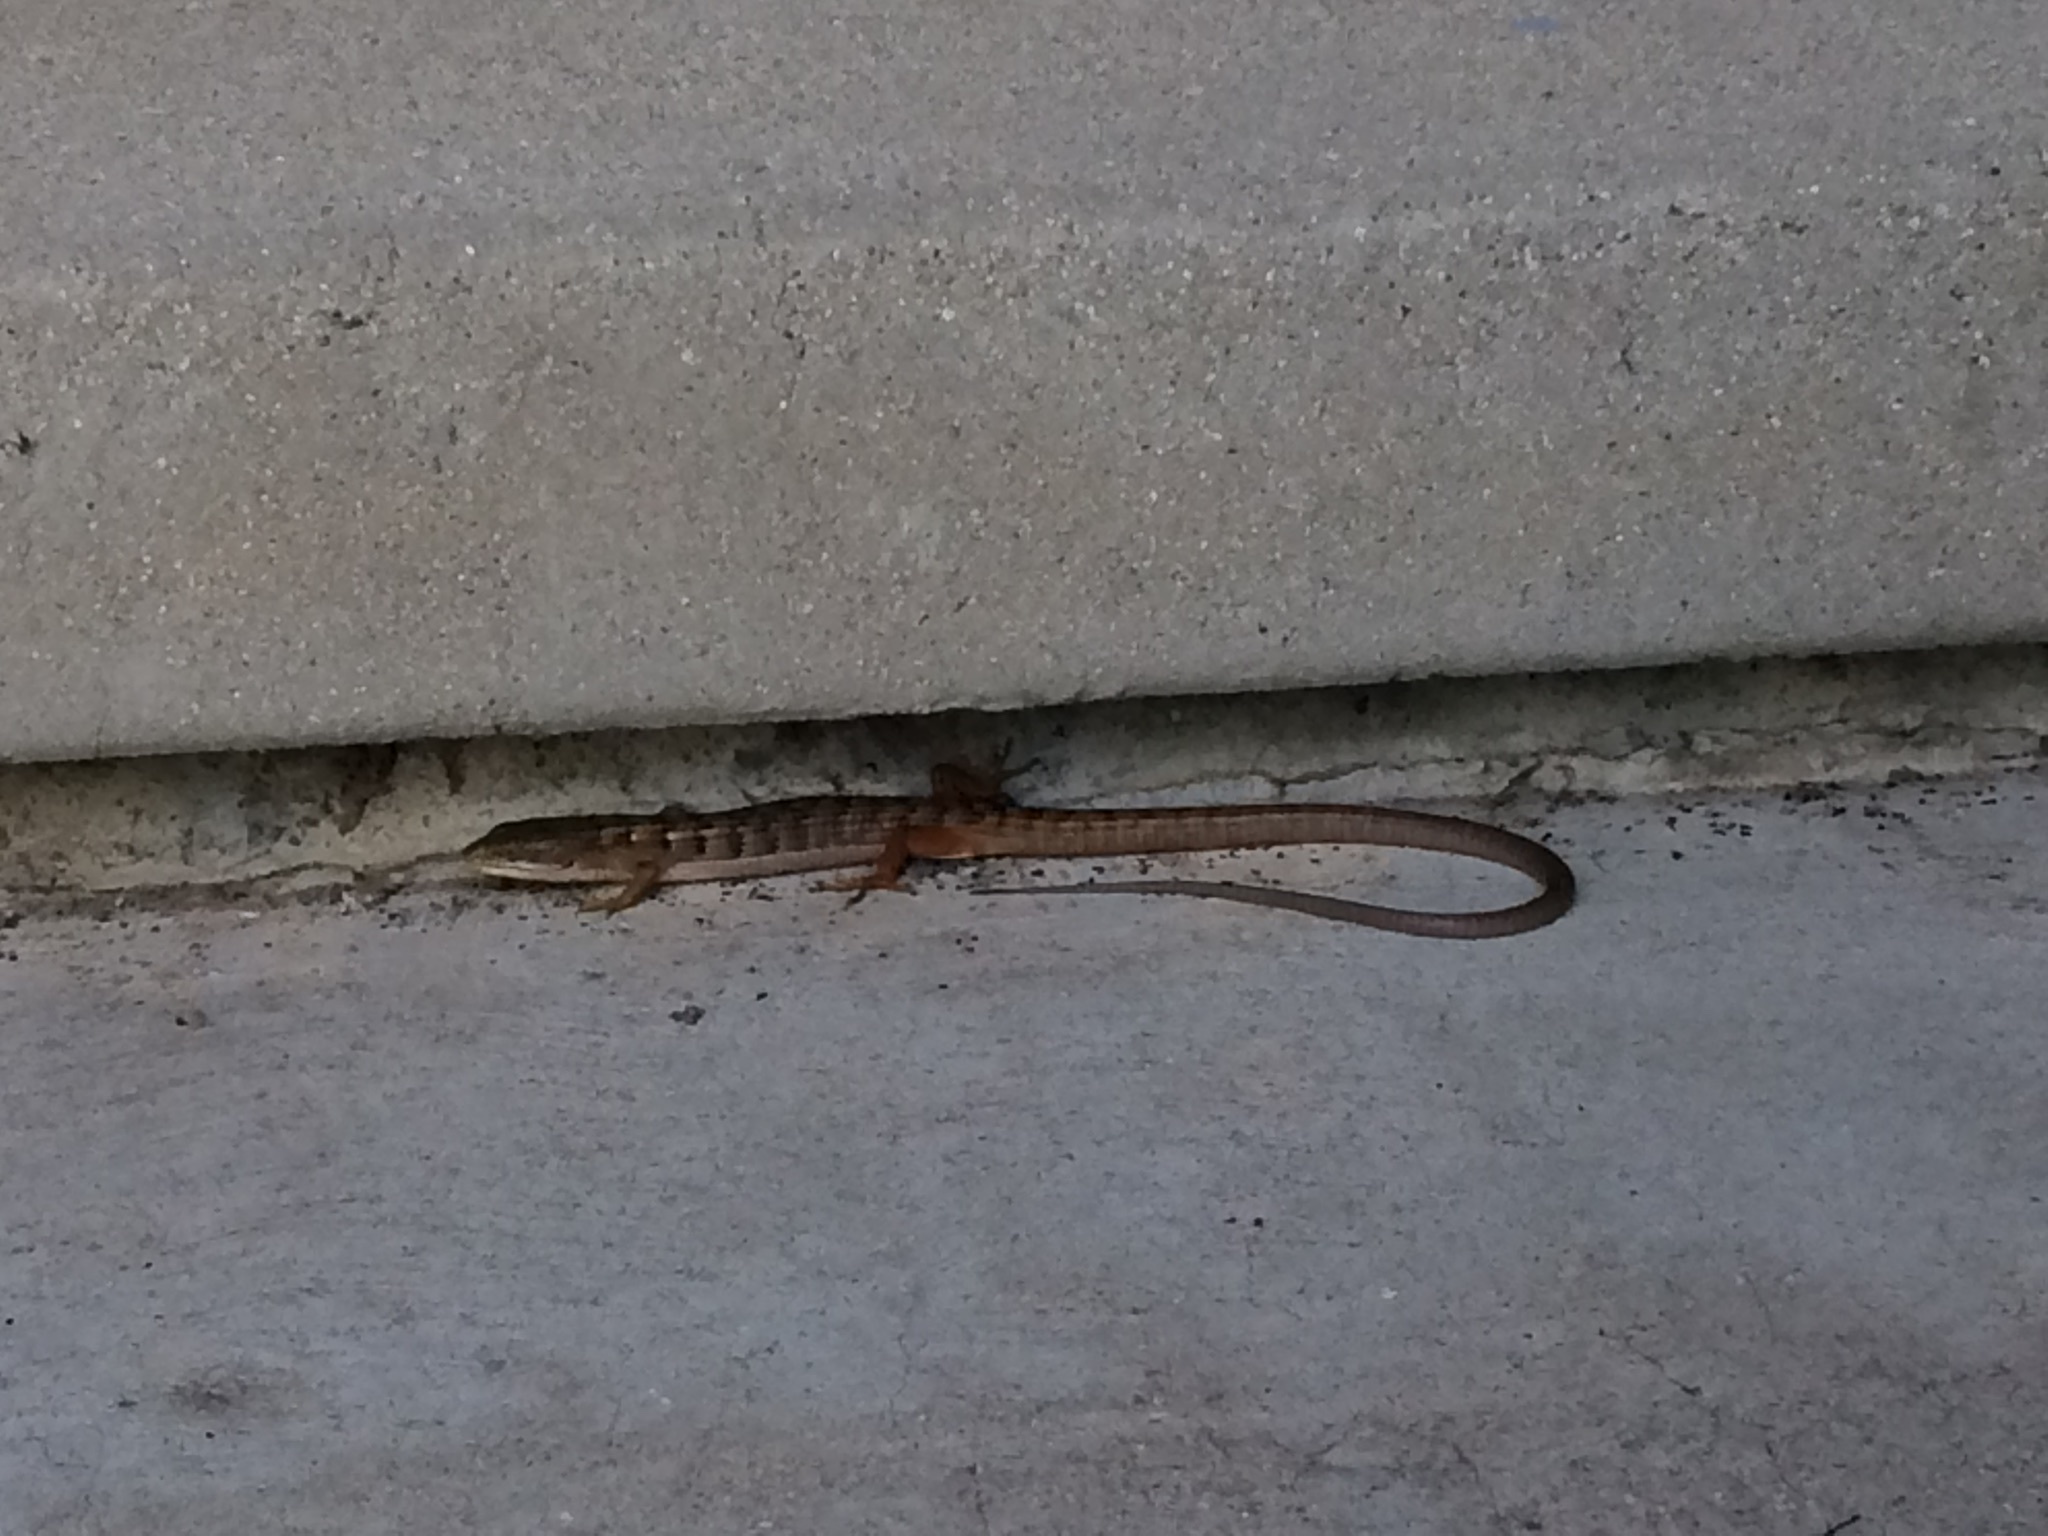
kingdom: Animalia
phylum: Chordata
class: Squamata
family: Anguidae
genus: Elgaria
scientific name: Elgaria multicarinata
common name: Southern alligator lizard
